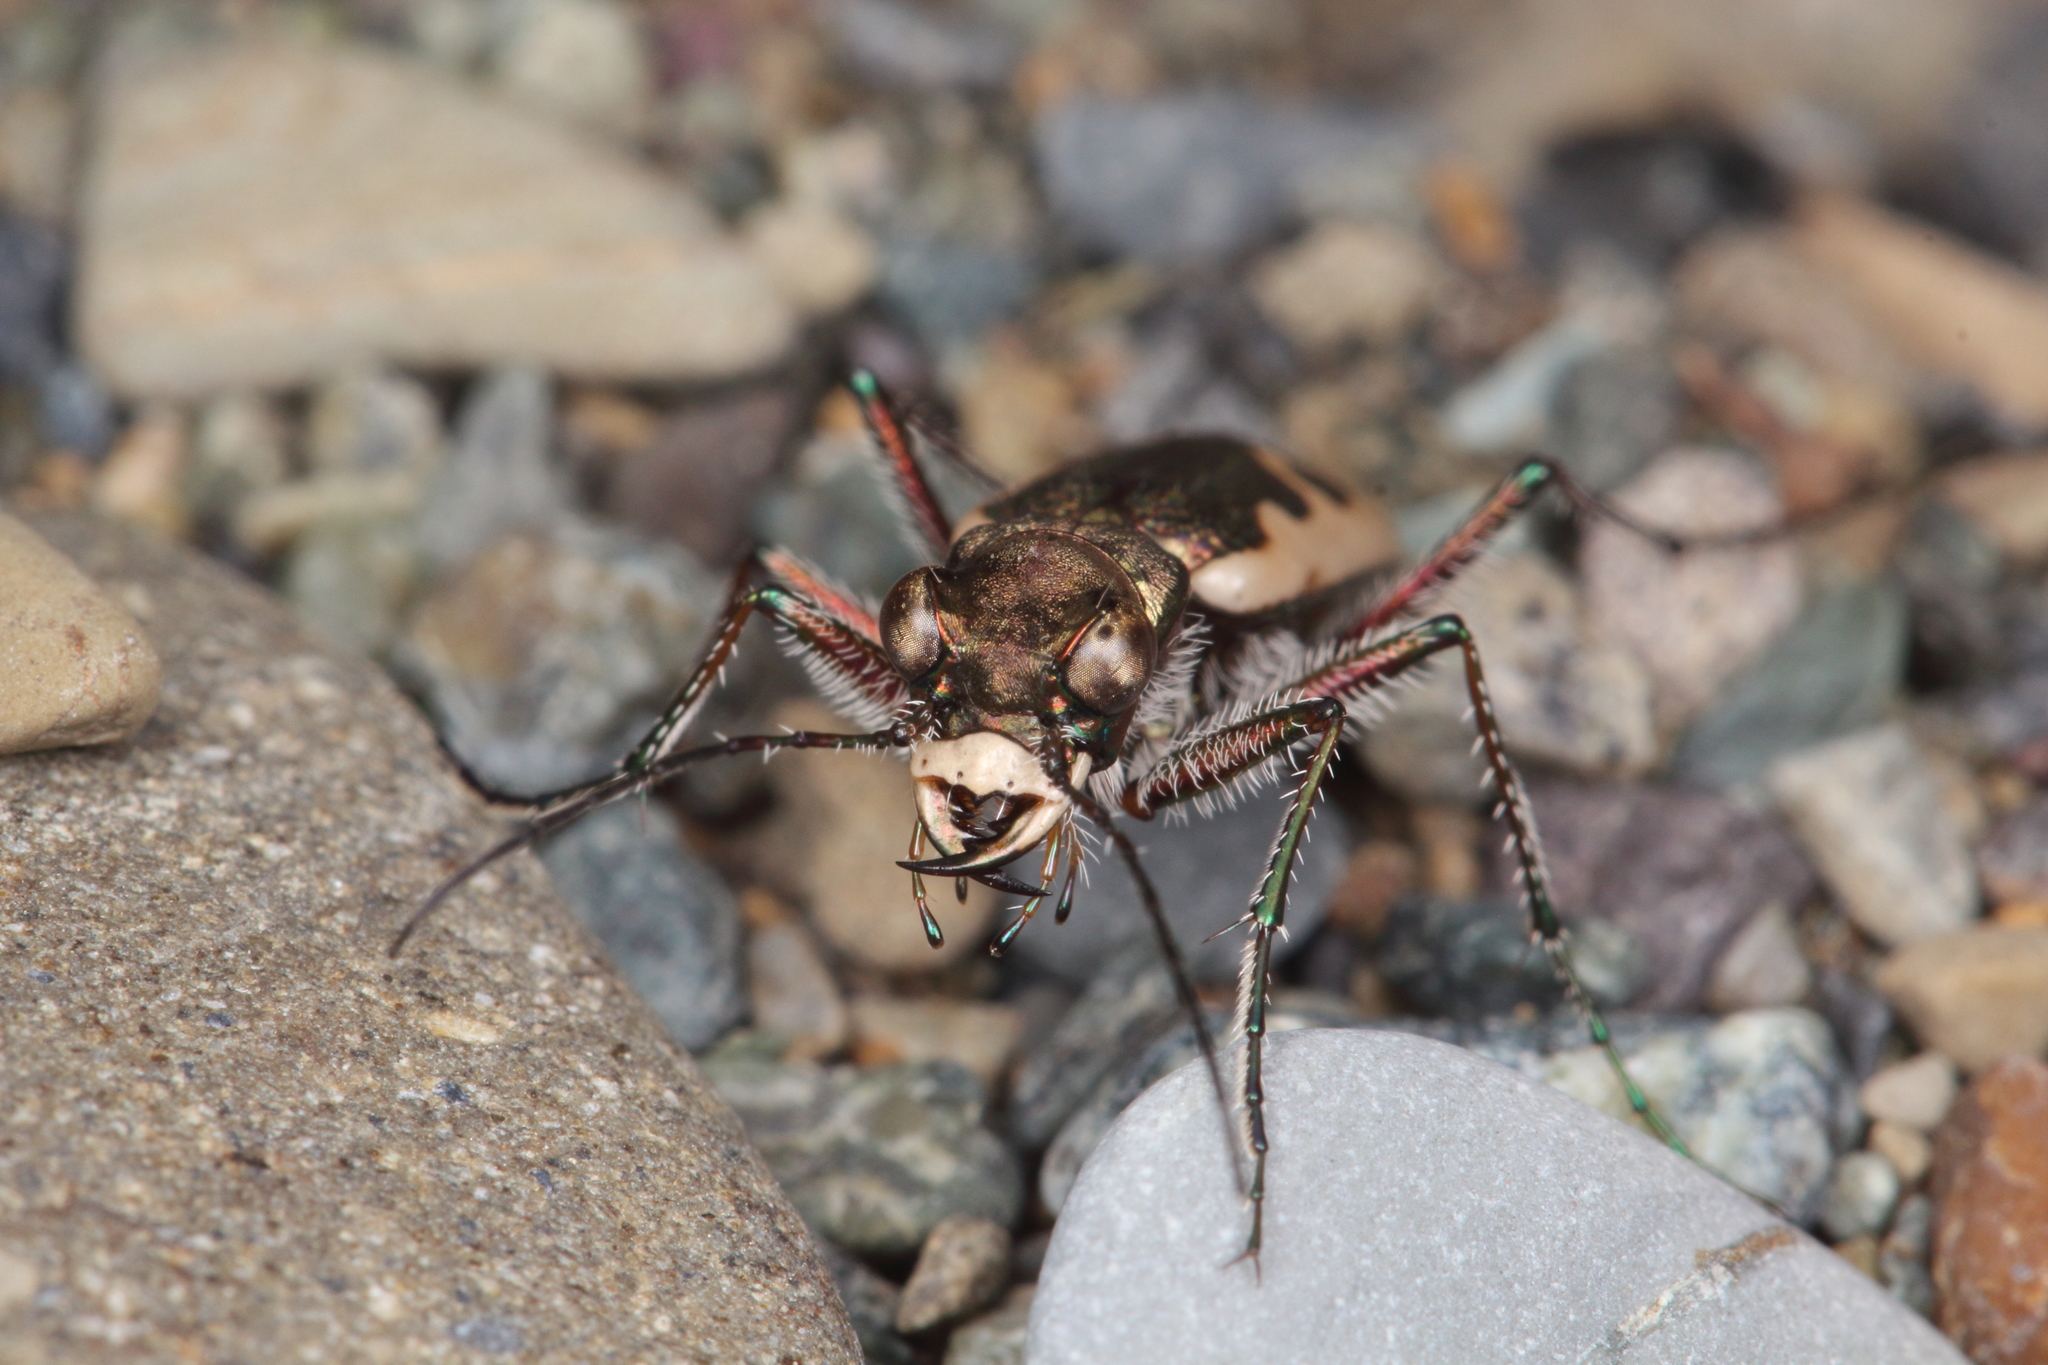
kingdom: Animalia
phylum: Arthropoda
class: Insecta
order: Coleoptera
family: Carabidae
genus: Neocicindela
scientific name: Neocicindela tuberculata
